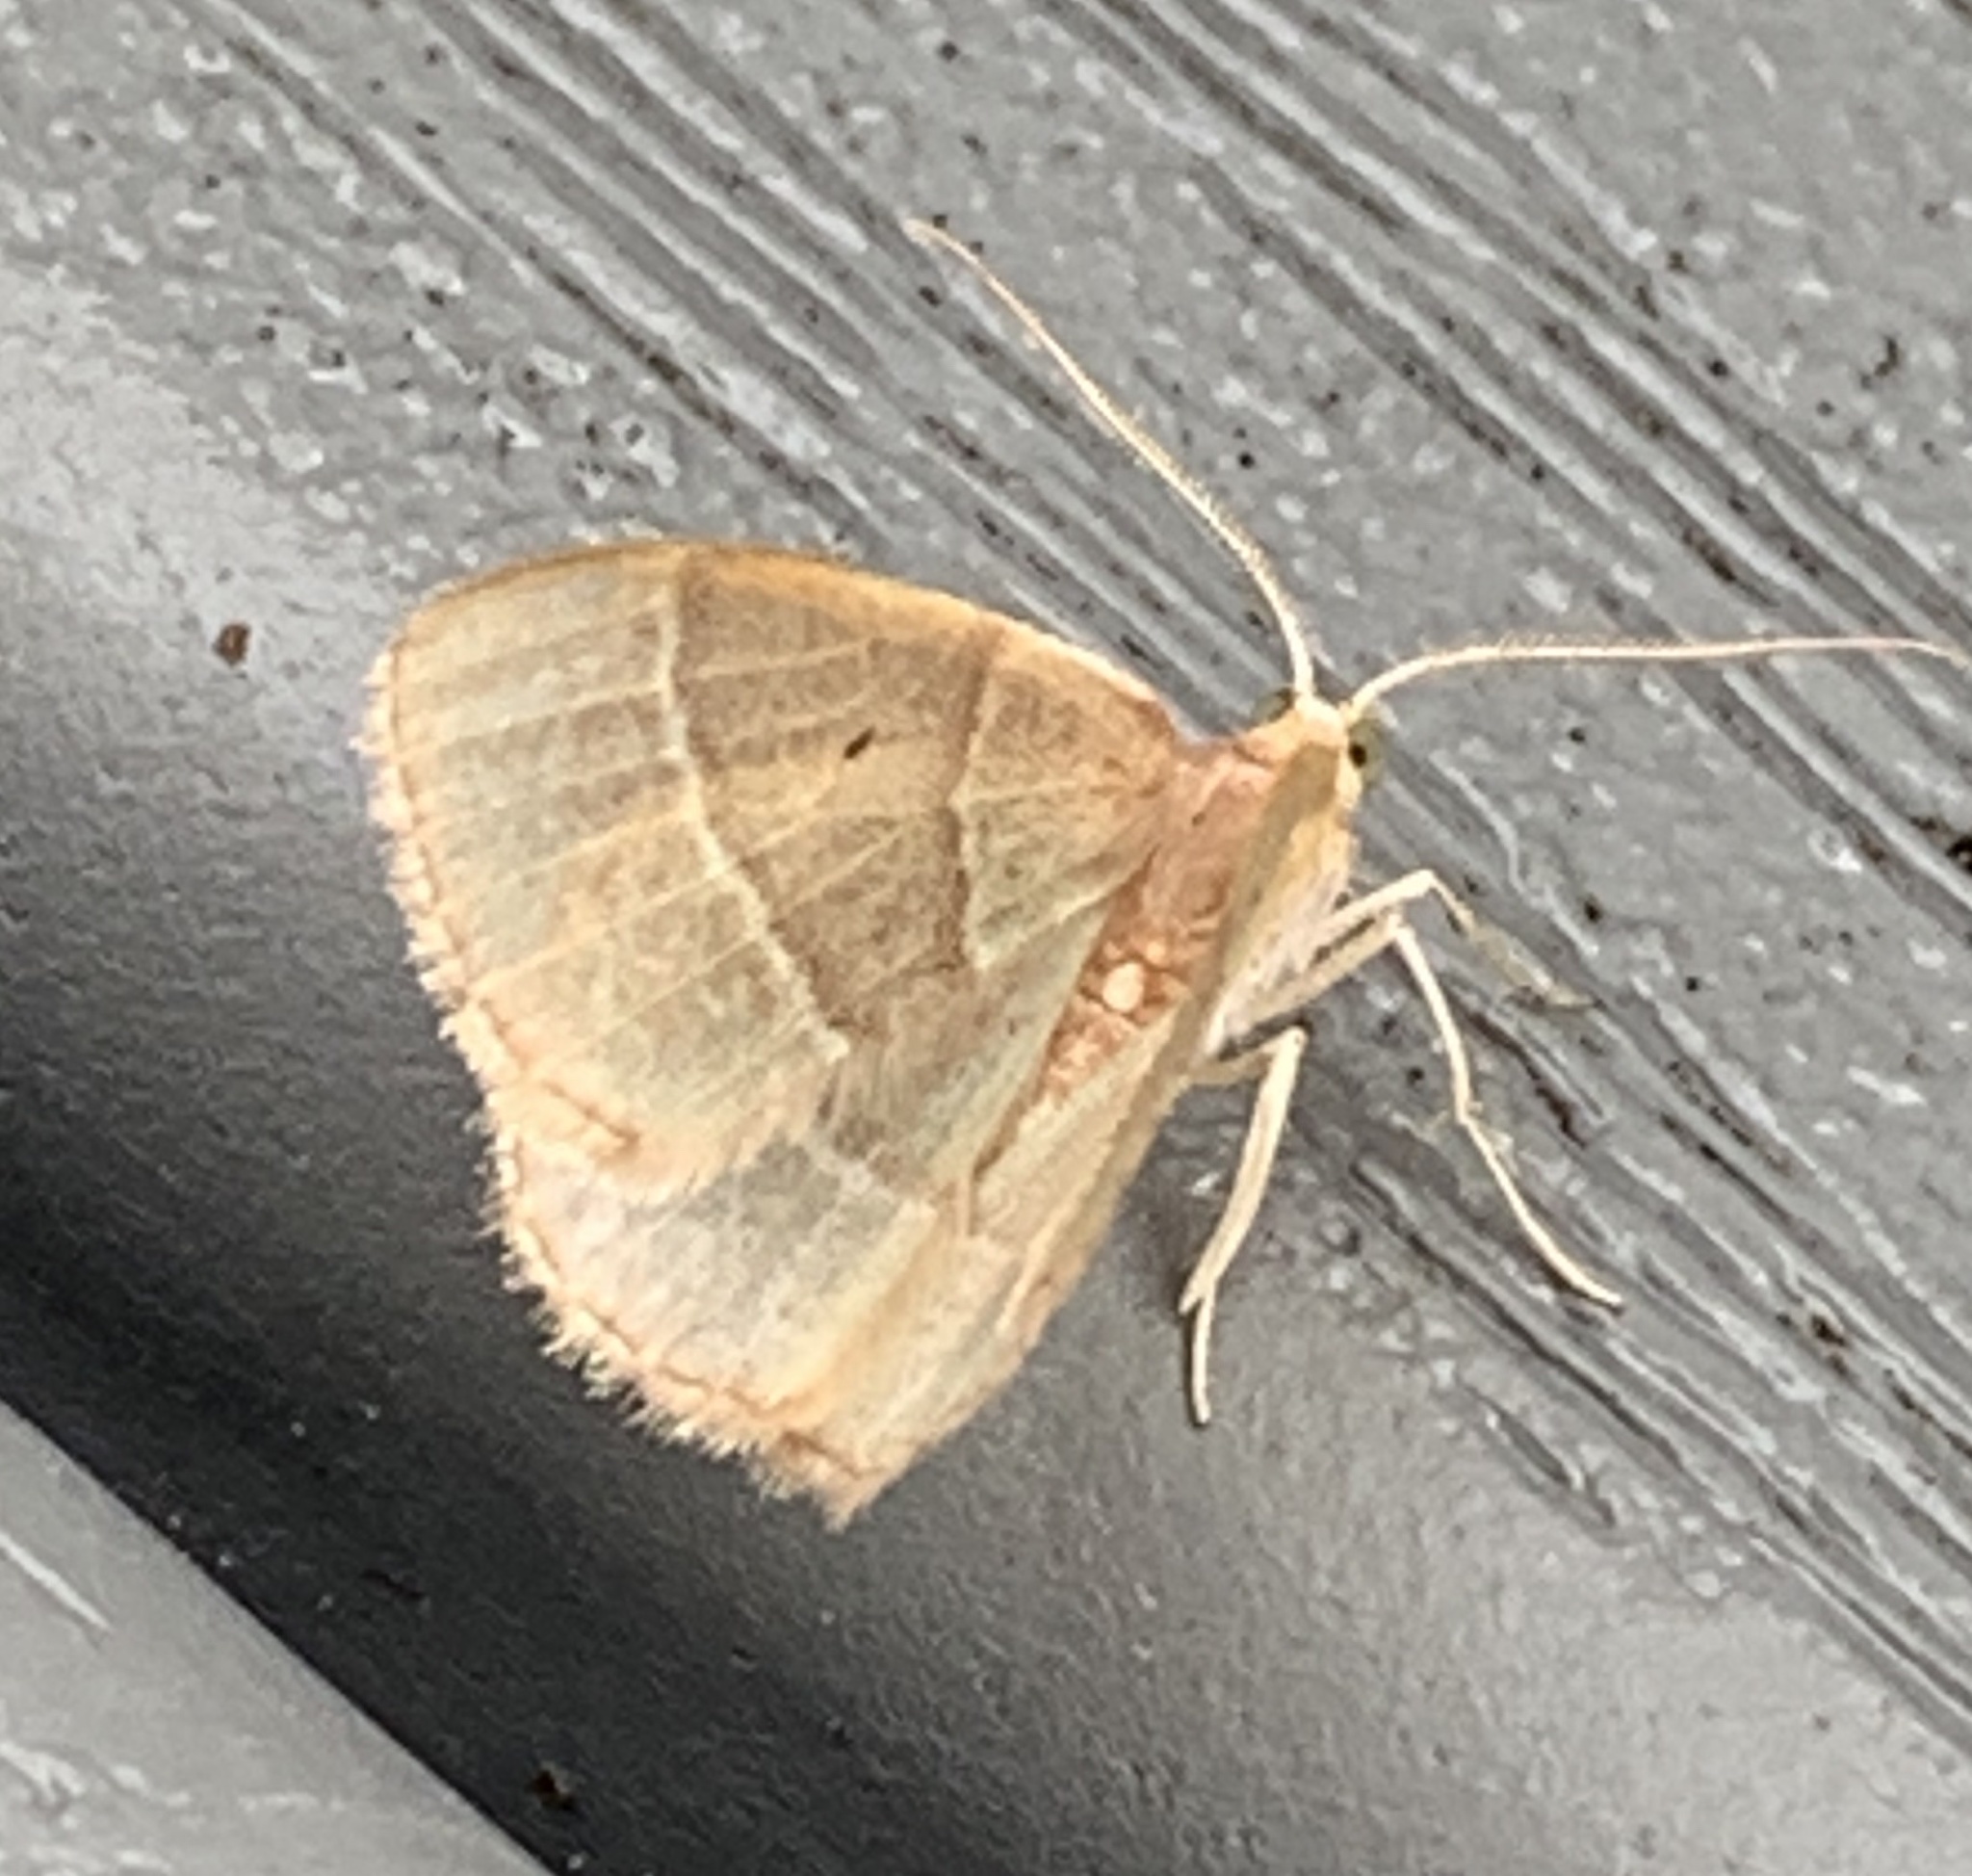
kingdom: Animalia
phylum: Arthropoda
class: Insecta
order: Lepidoptera
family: Geometridae
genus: Nemoria
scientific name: Nemoria bistriaria
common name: Red-fringed emerald
